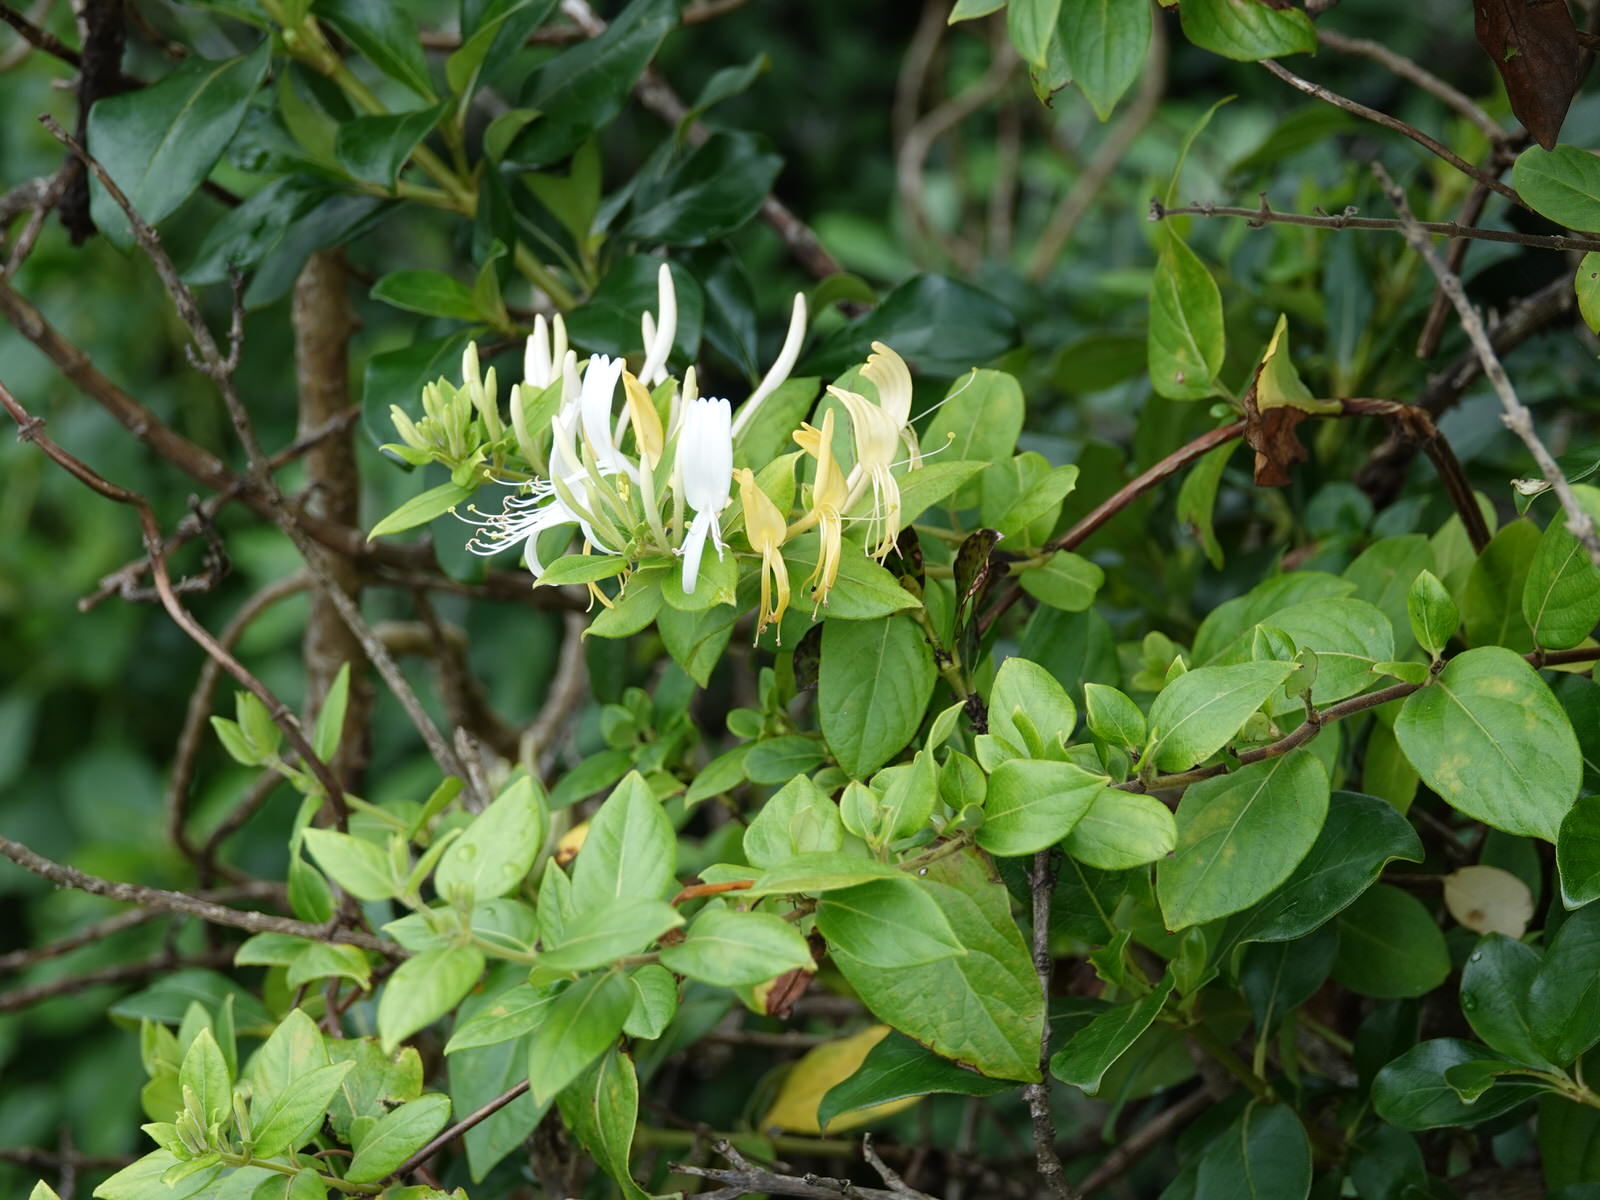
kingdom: Plantae
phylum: Tracheophyta
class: Magnoliopsida
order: Dipsacales
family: Caprifoliaceae
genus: Lonicera
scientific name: Lonicera japonica
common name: Japanese honeysuckle
